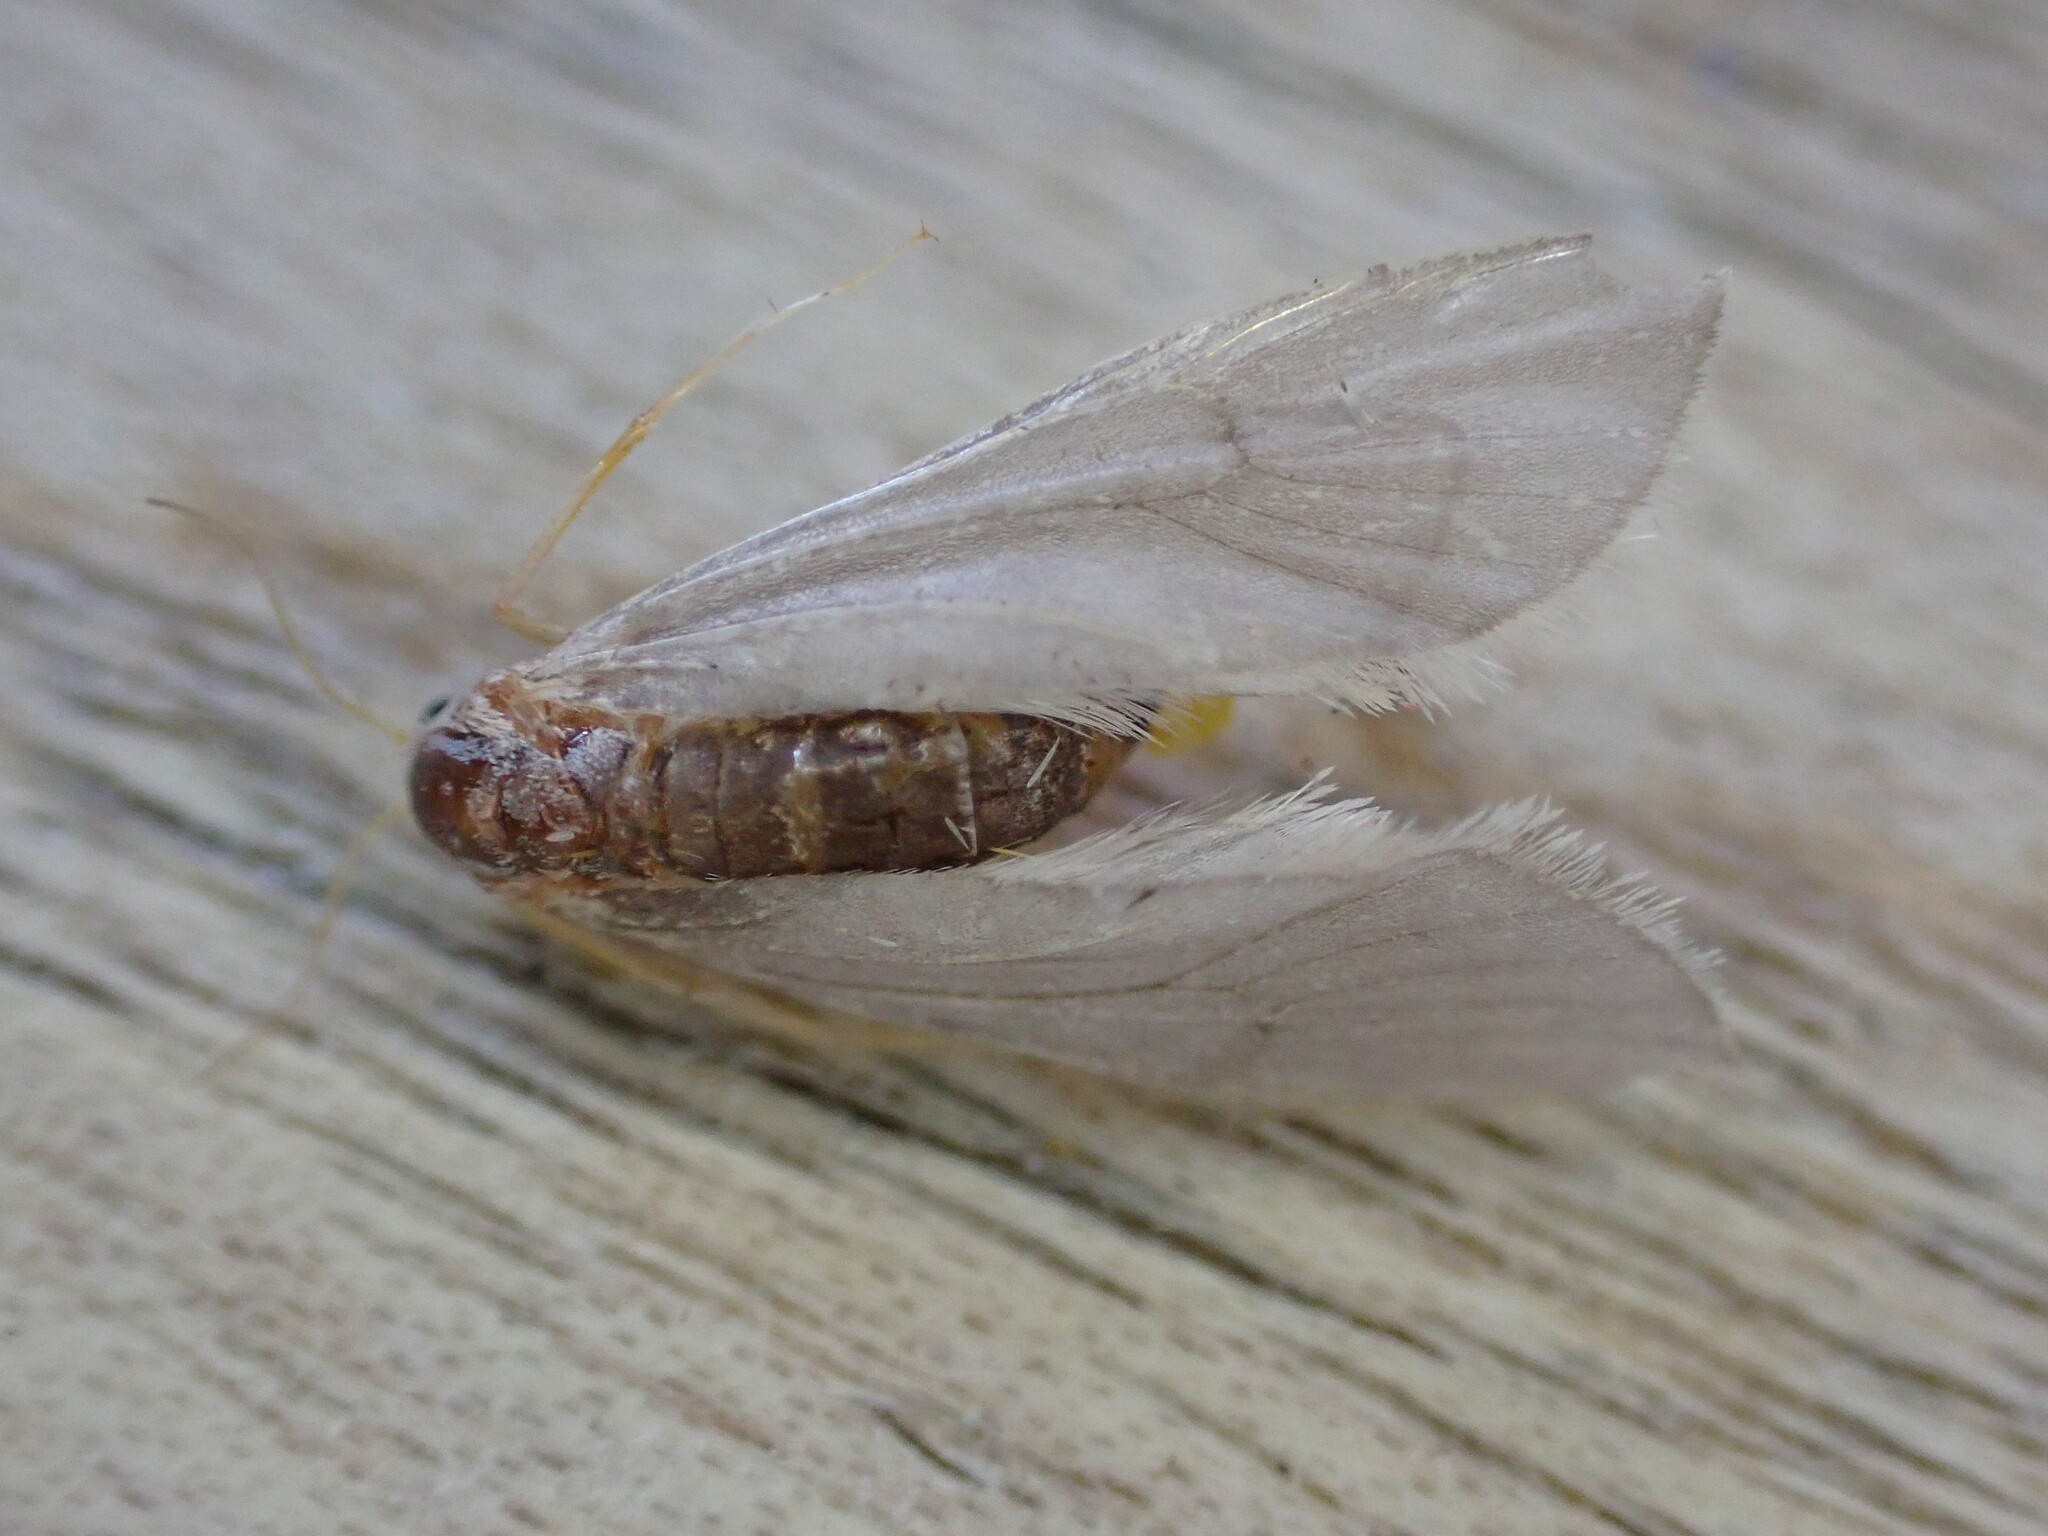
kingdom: Animalia
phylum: Arthropoda
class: Insecta
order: Lepidoptera
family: Crambidae
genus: Acentria
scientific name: Acentria ephemerella
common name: European water moth
